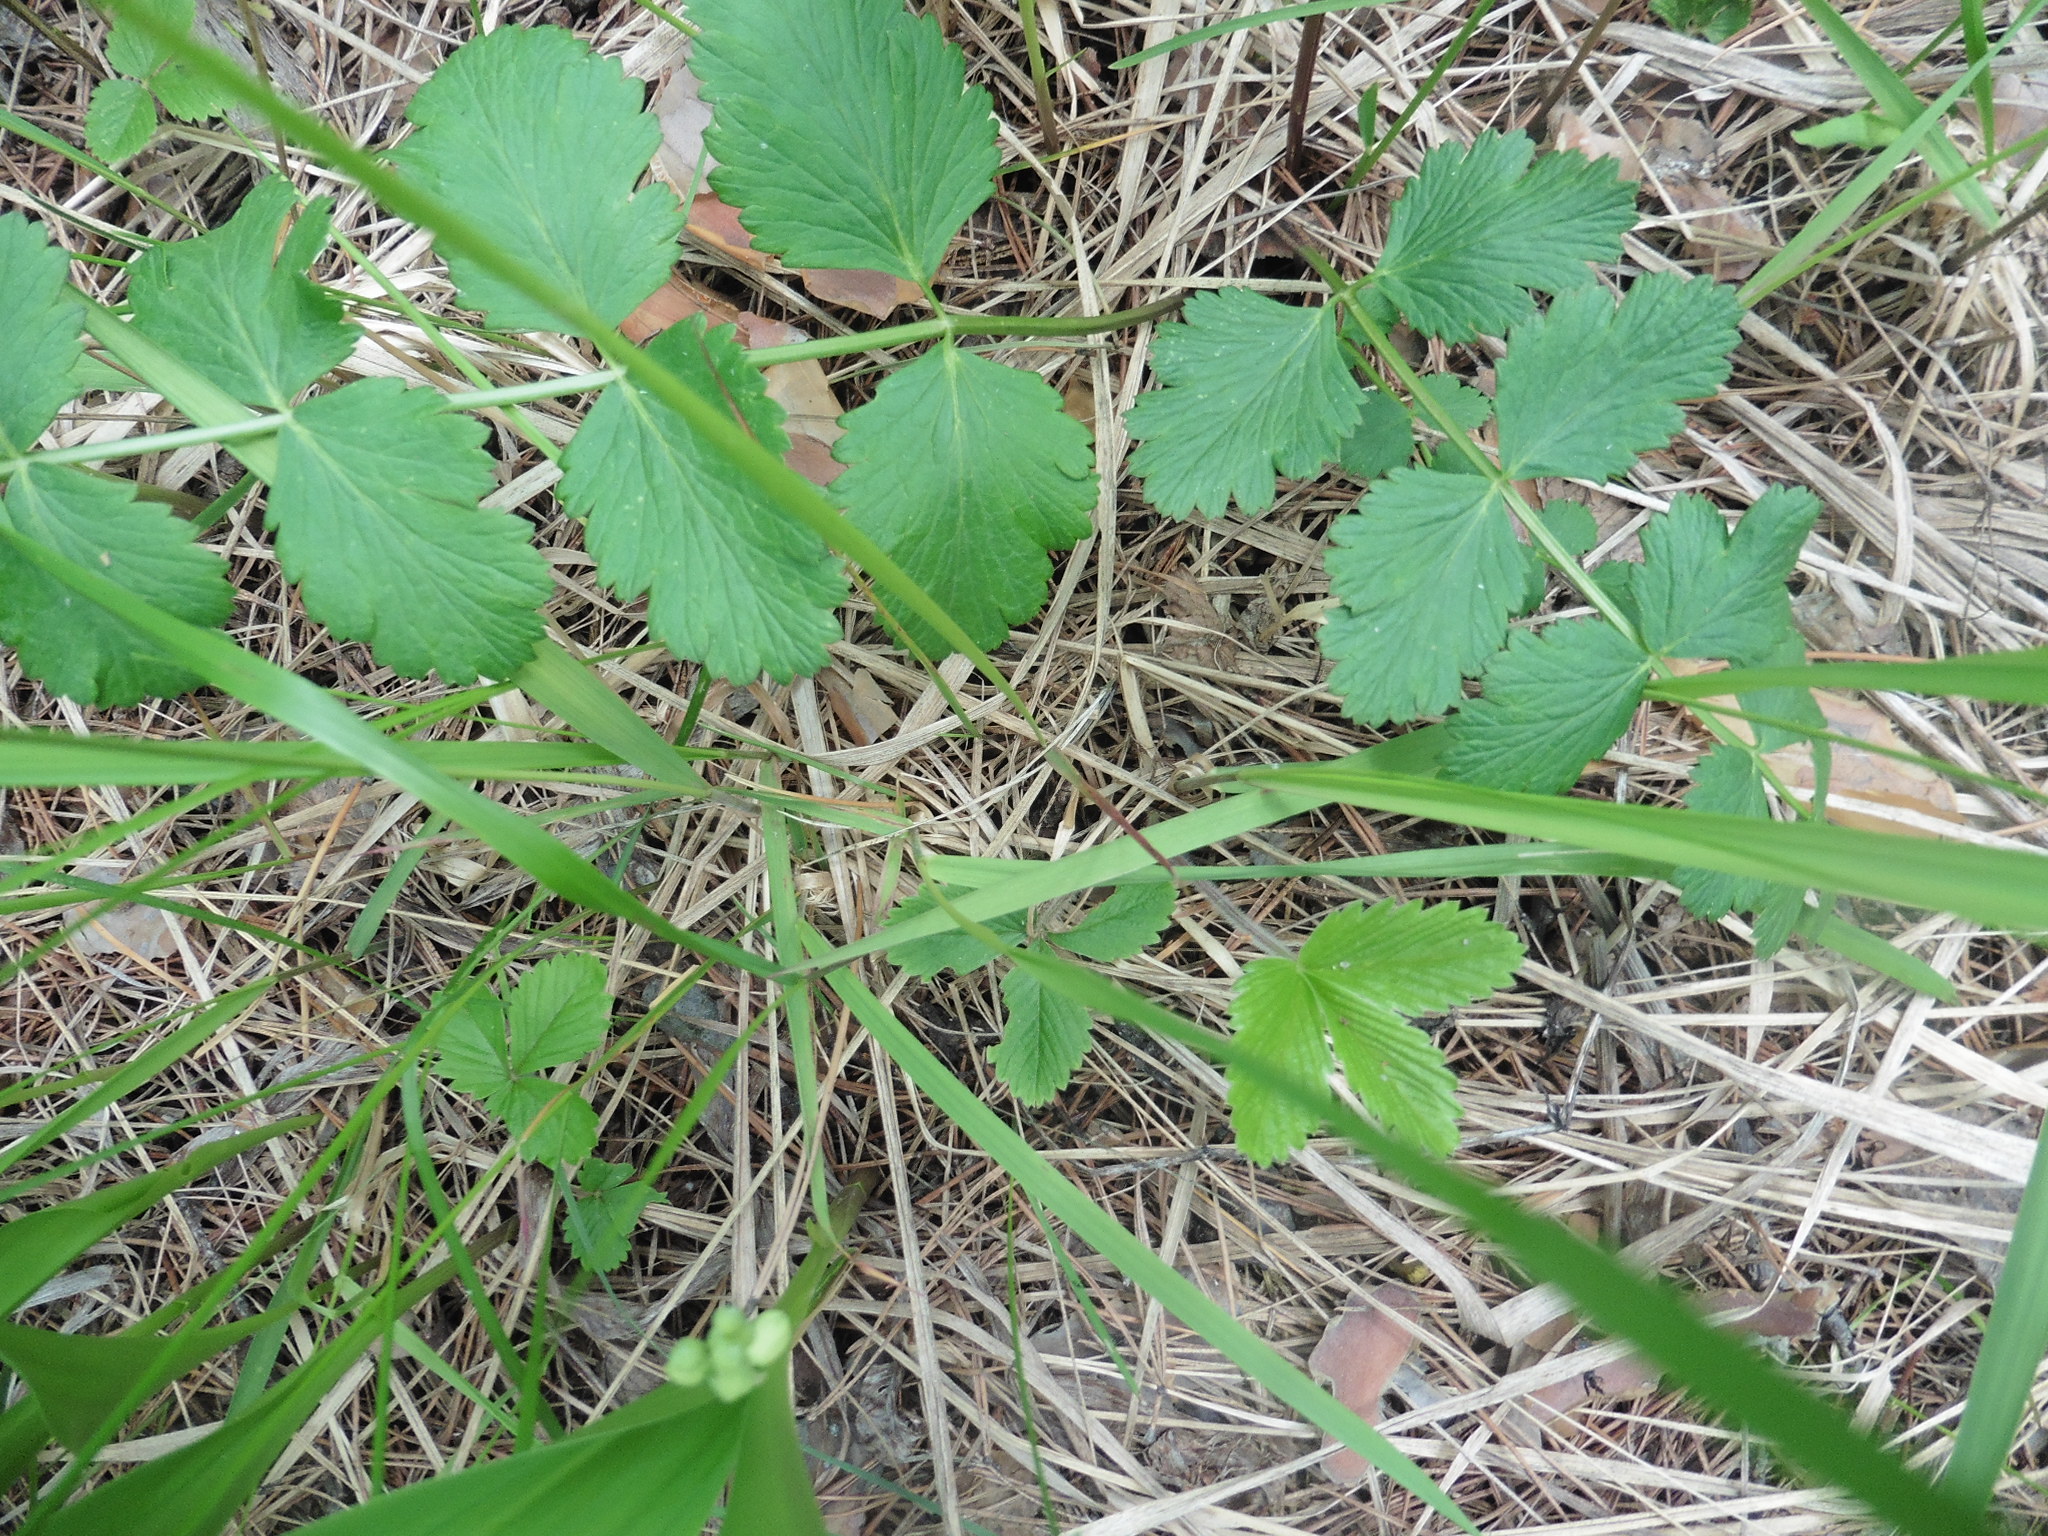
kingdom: Plantae
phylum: Tracheophyta
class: Magnoliopsida
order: Apiales
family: Apiaceae
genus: Pimpinella
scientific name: Pimpinella saxifraga
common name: Burnet-saxifrage
